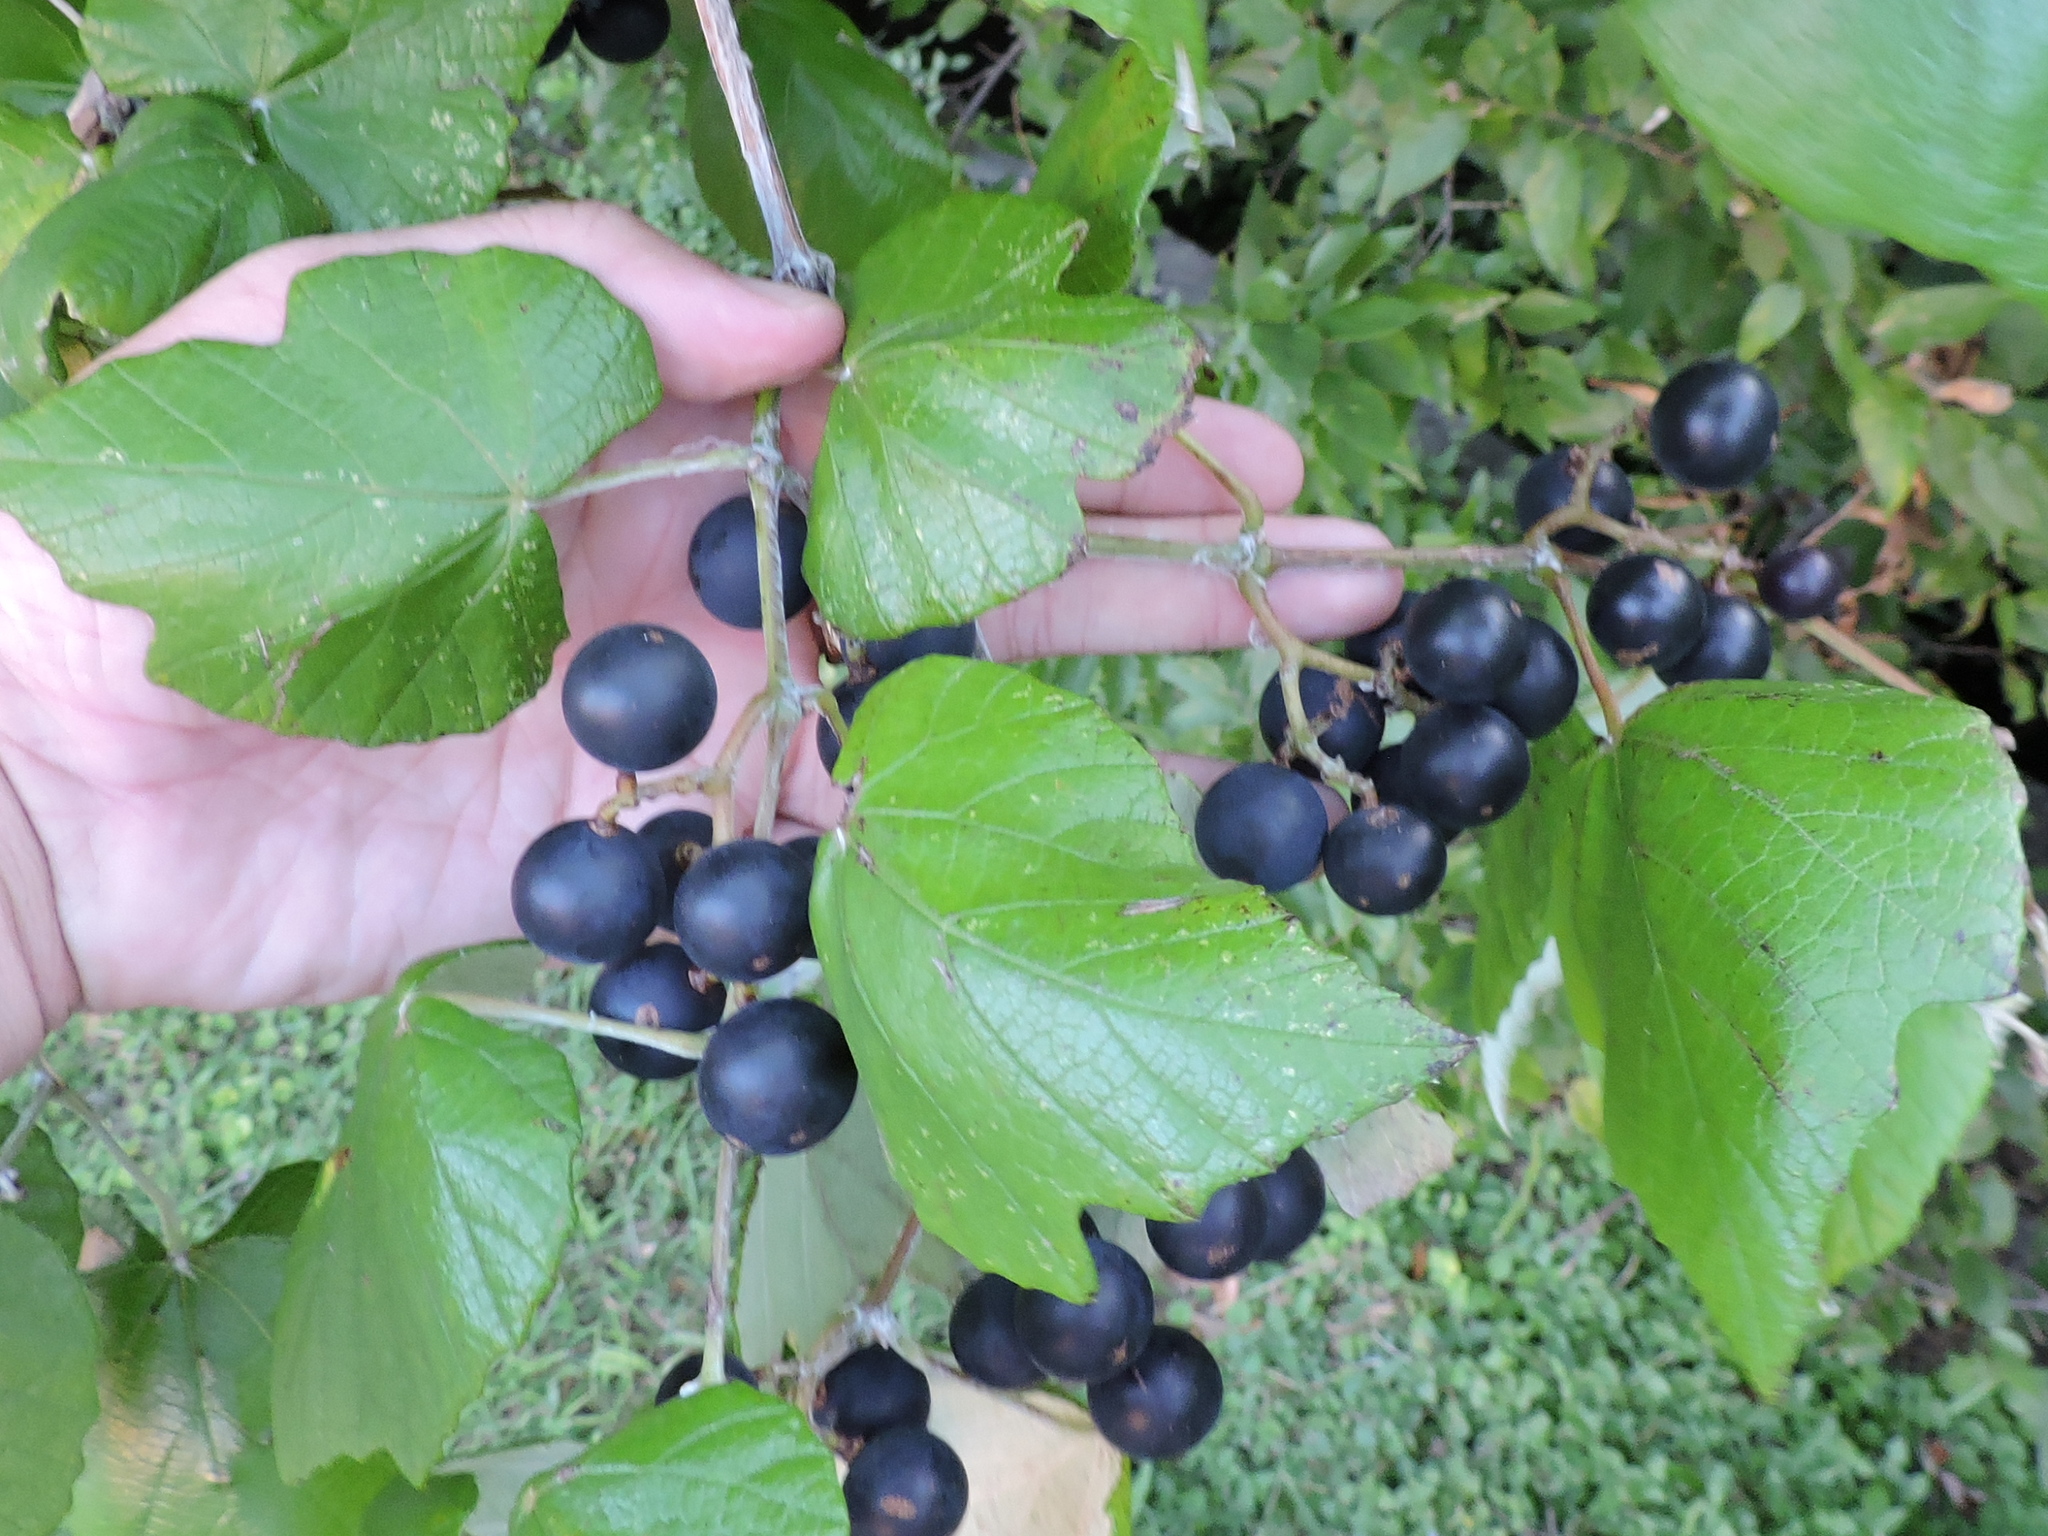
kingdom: Plantae
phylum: Tracheophyta
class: Magnoliopsida
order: Vitales
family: Vitaceae
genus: Vitis
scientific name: Vitis mustangensis
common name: Mustang grape
